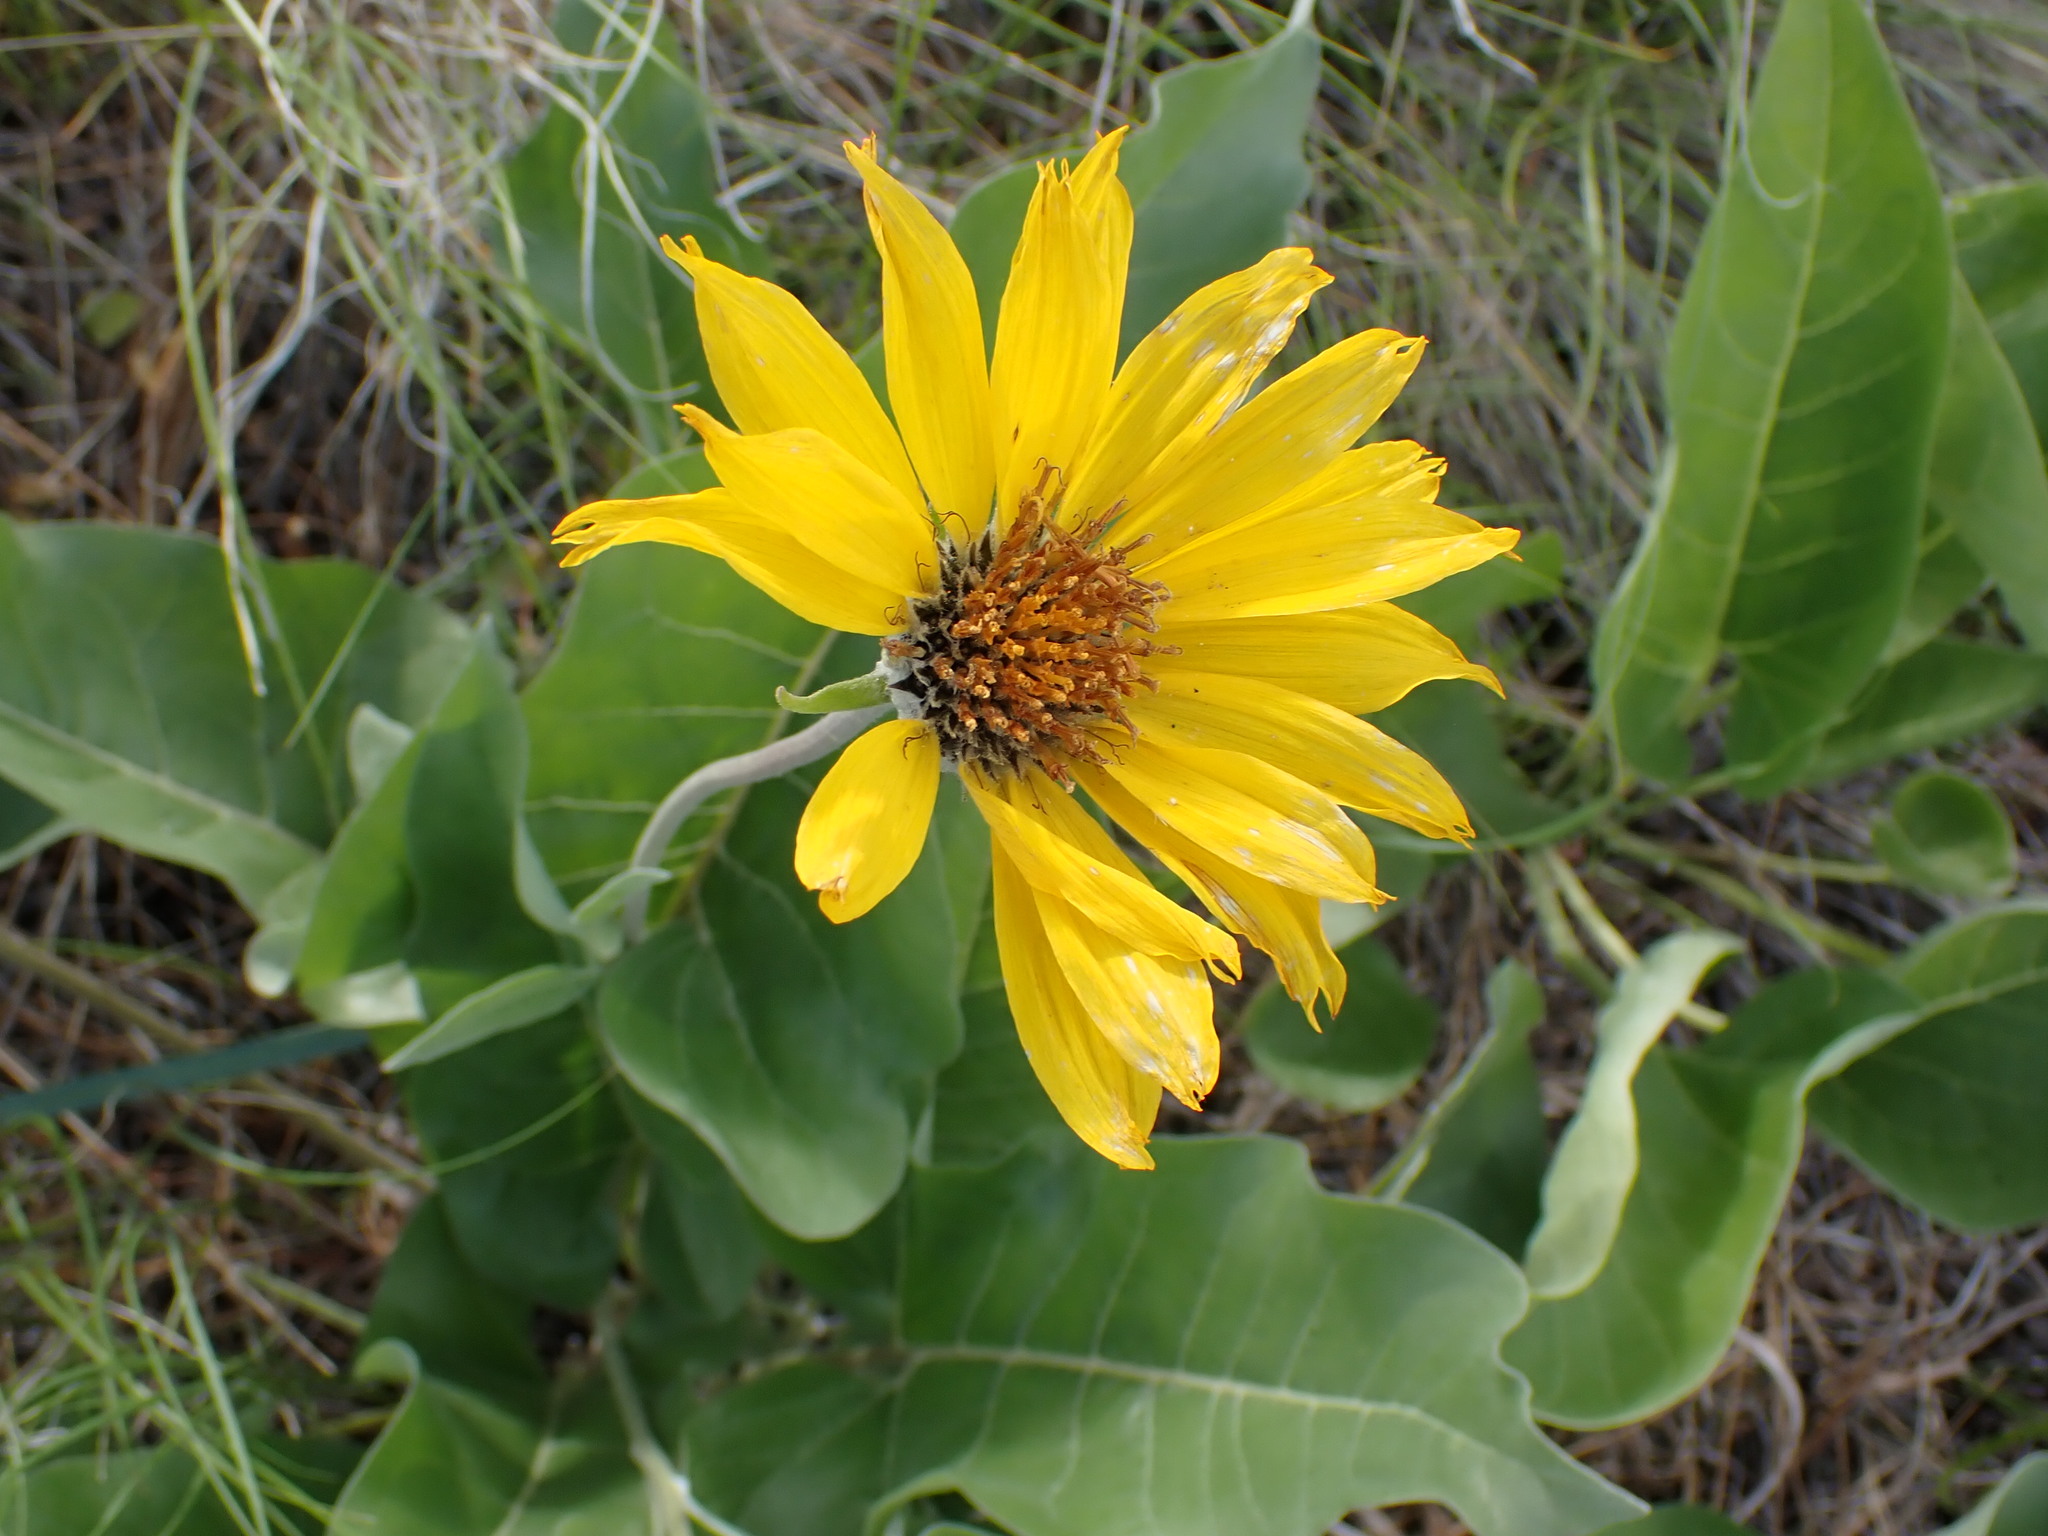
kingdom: Plantae
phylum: Tracheophyta
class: Magnoliopsida
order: Asterales
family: Asteraceae
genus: Wyethia
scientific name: Wyethia sagittata
